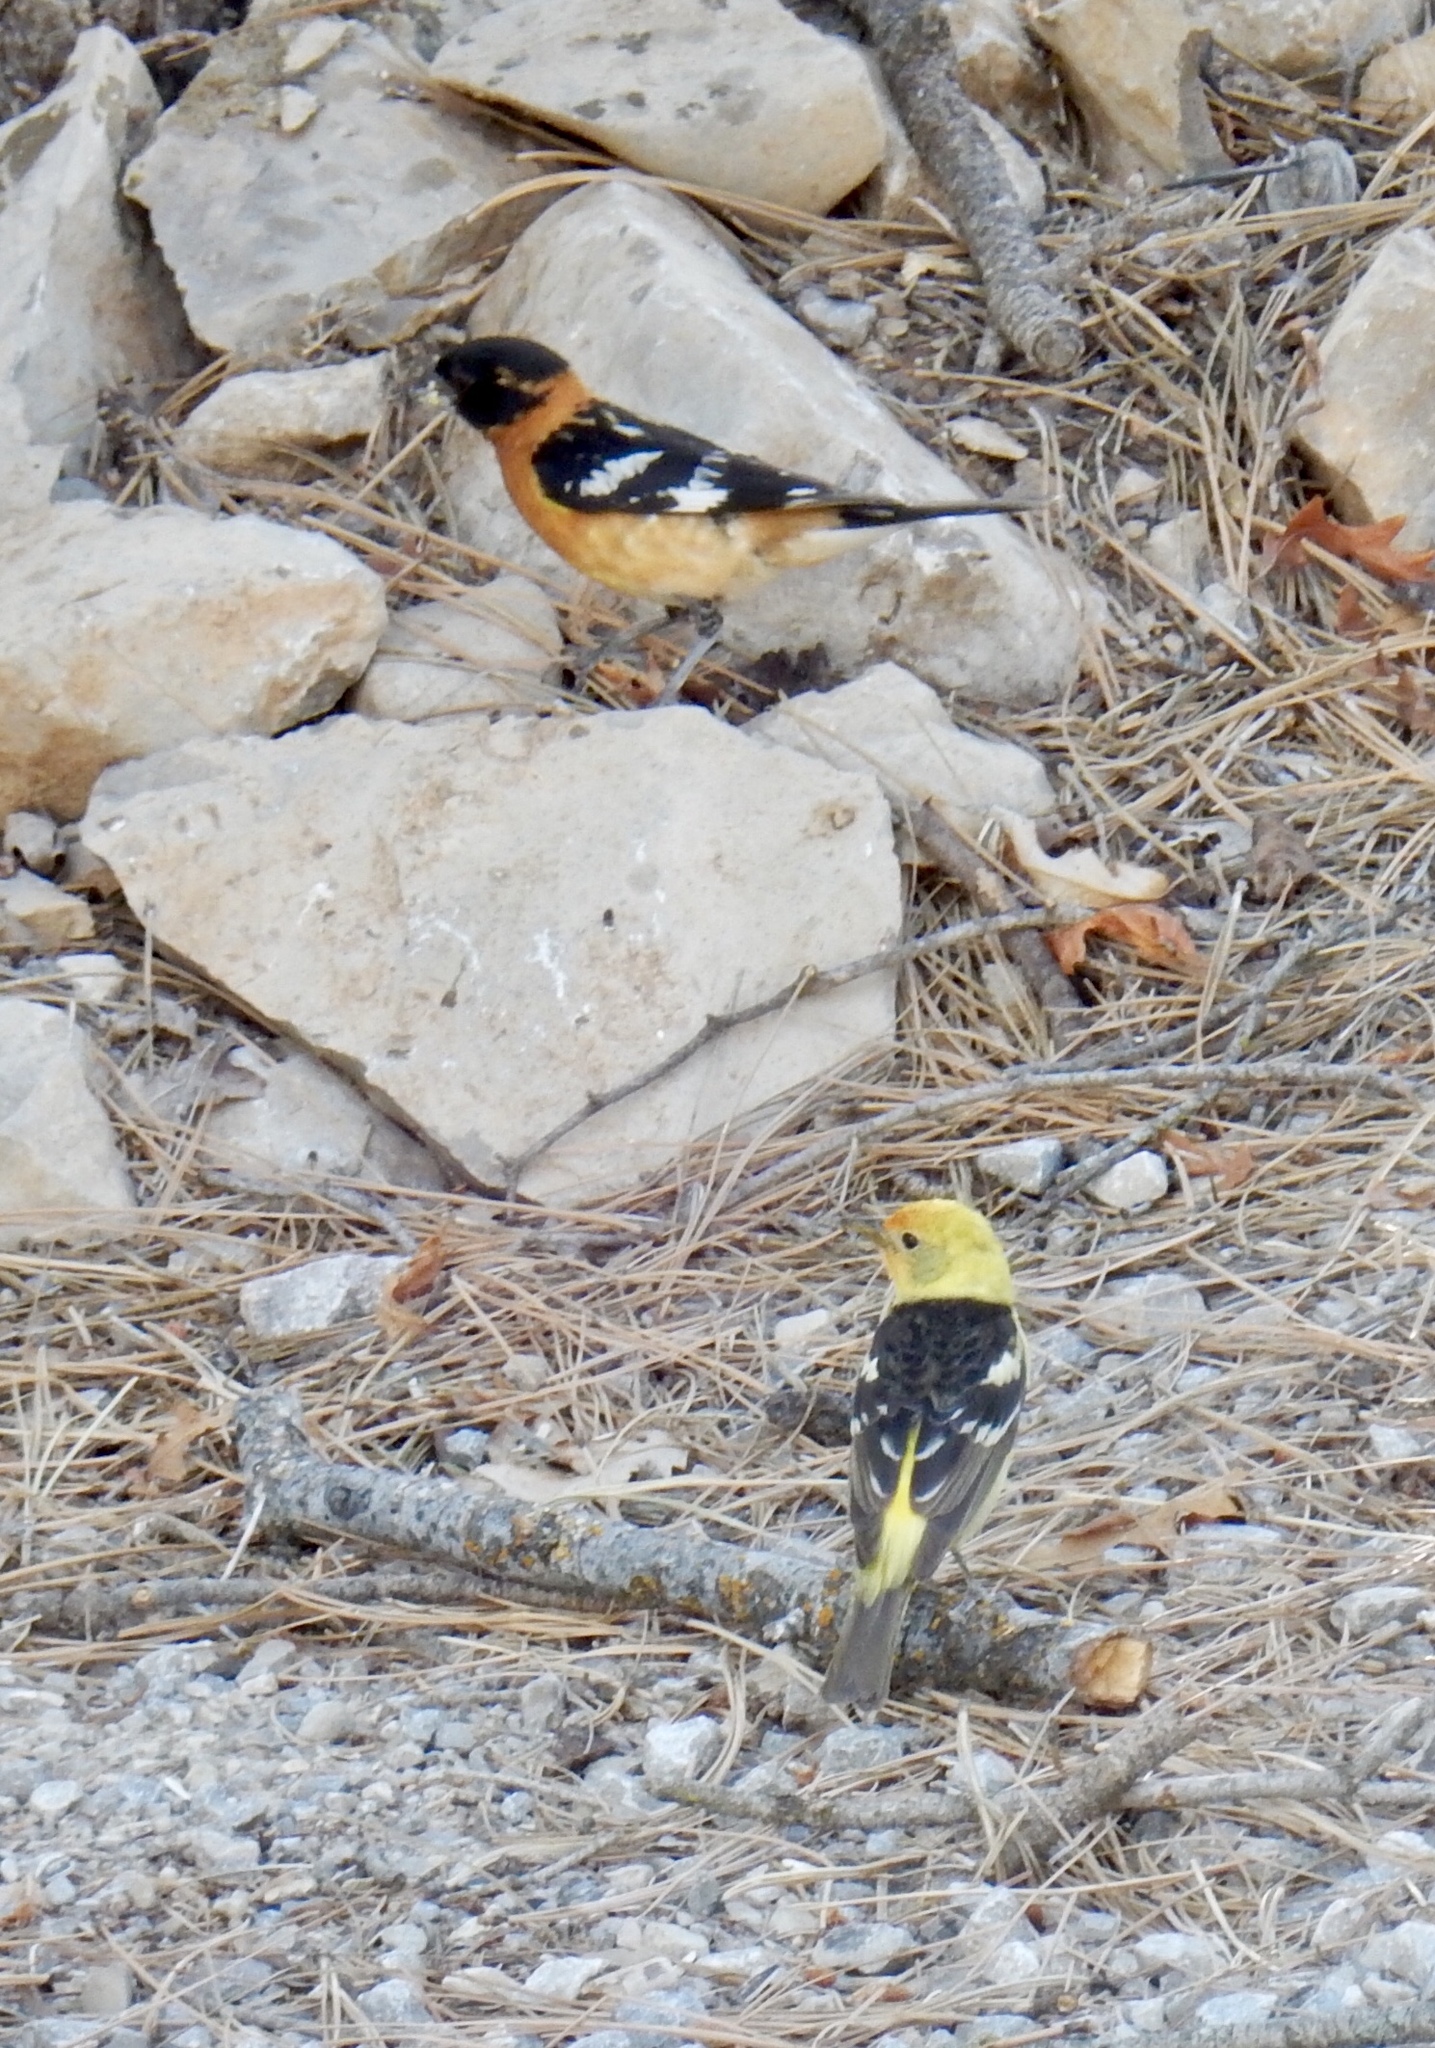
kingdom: Animalia
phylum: Chordata
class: Aves
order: Passeriformes
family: Cardinalidae
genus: Pheucticus
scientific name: Pheucticus melanocephalus
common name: Black-headed grosbeak
